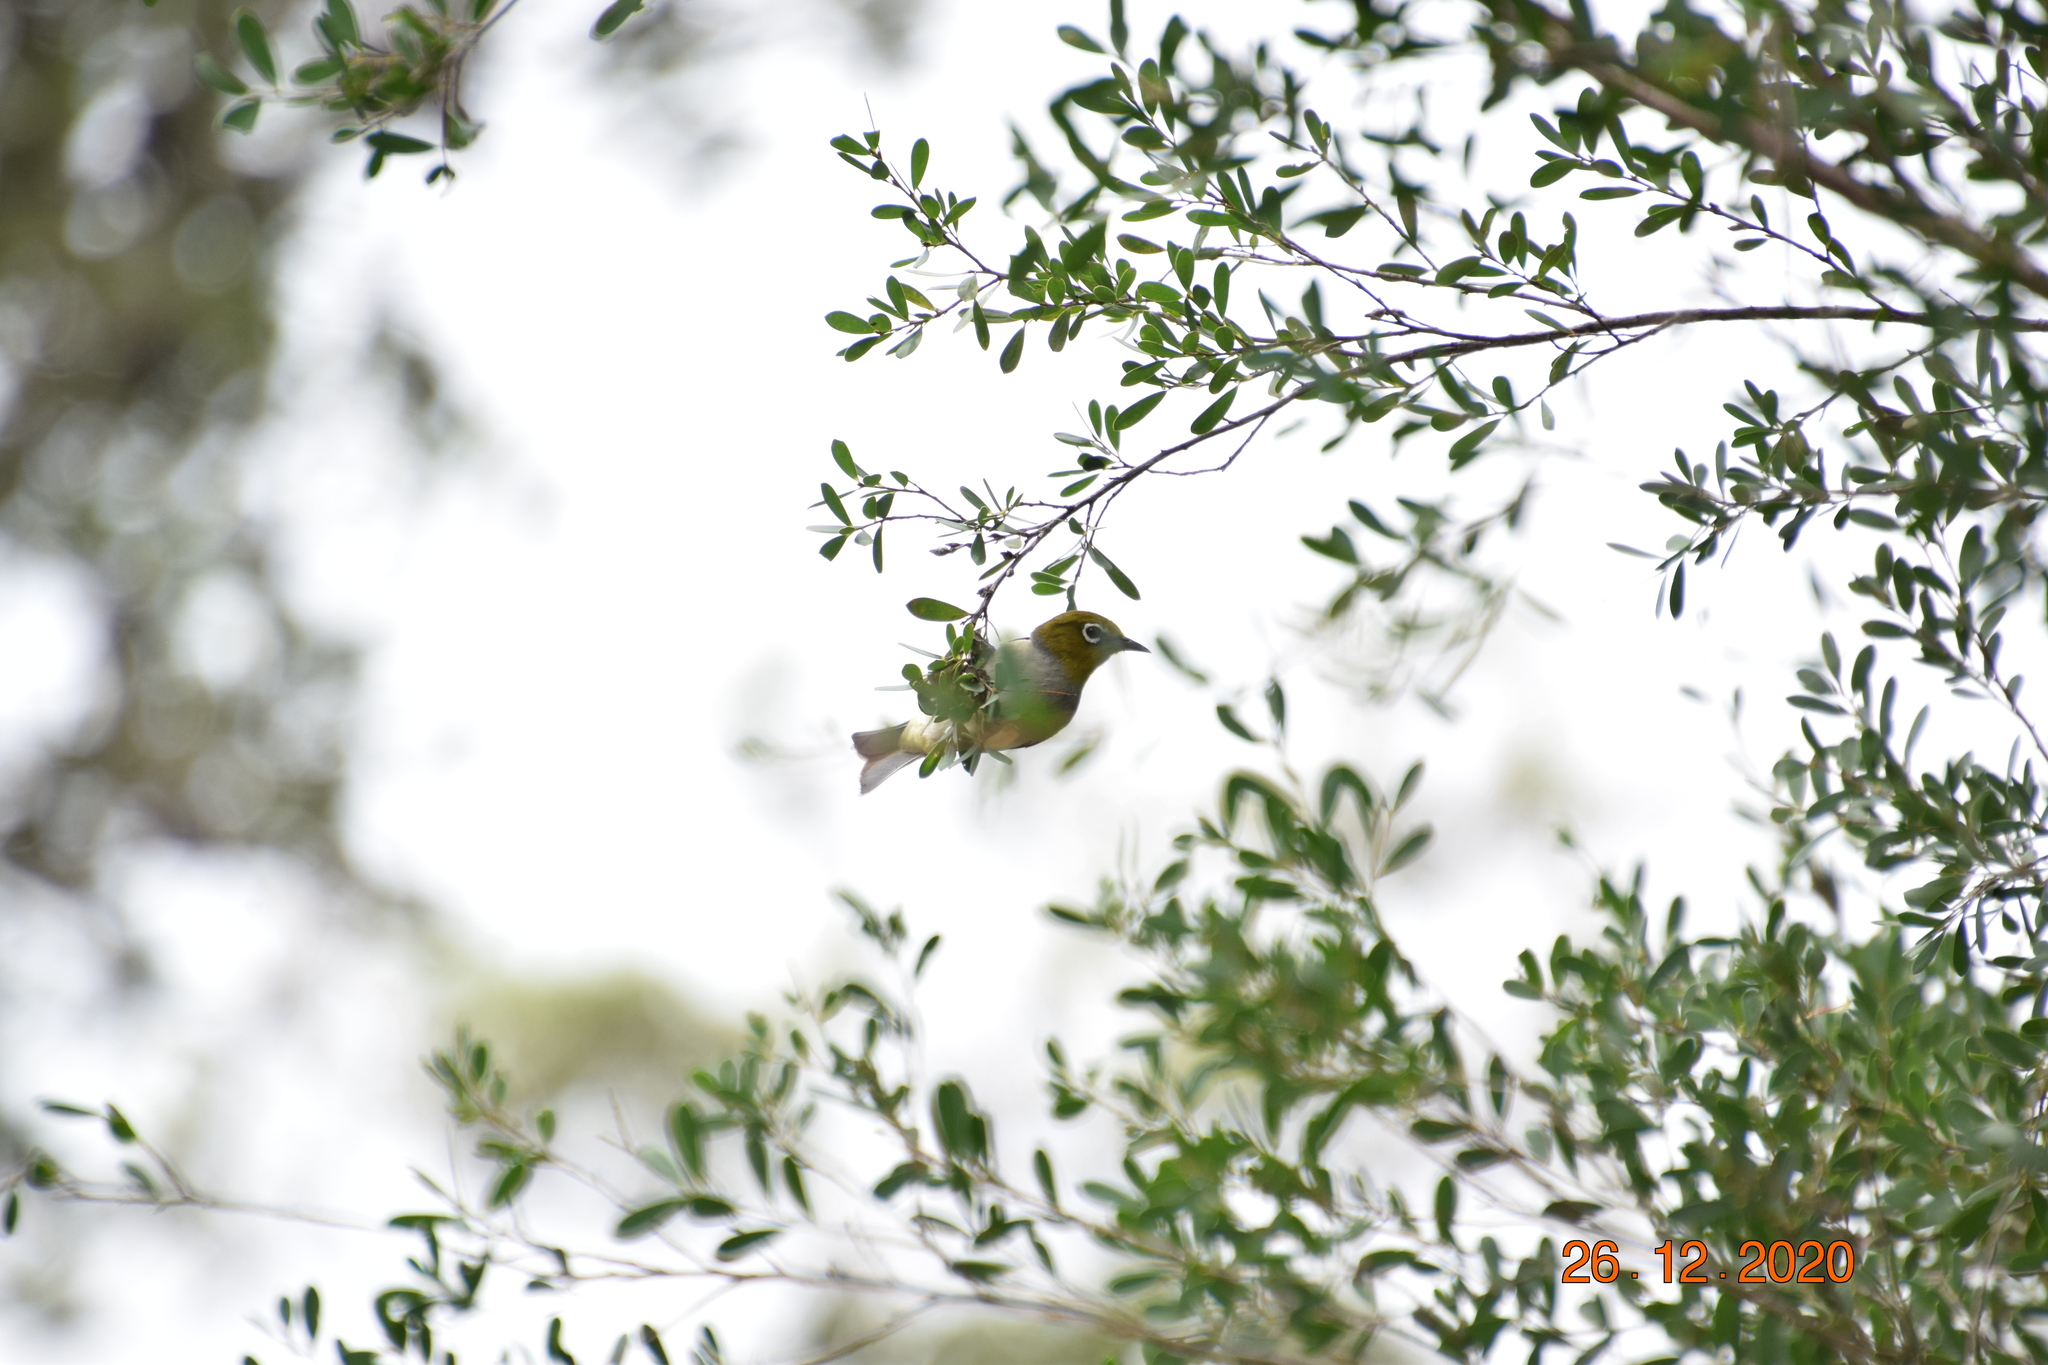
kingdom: Animalia
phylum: Chordata
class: Aves
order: Passeriformes
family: Zosteropidae
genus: Zosterops
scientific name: Zosterops lateralis
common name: Silvereye
